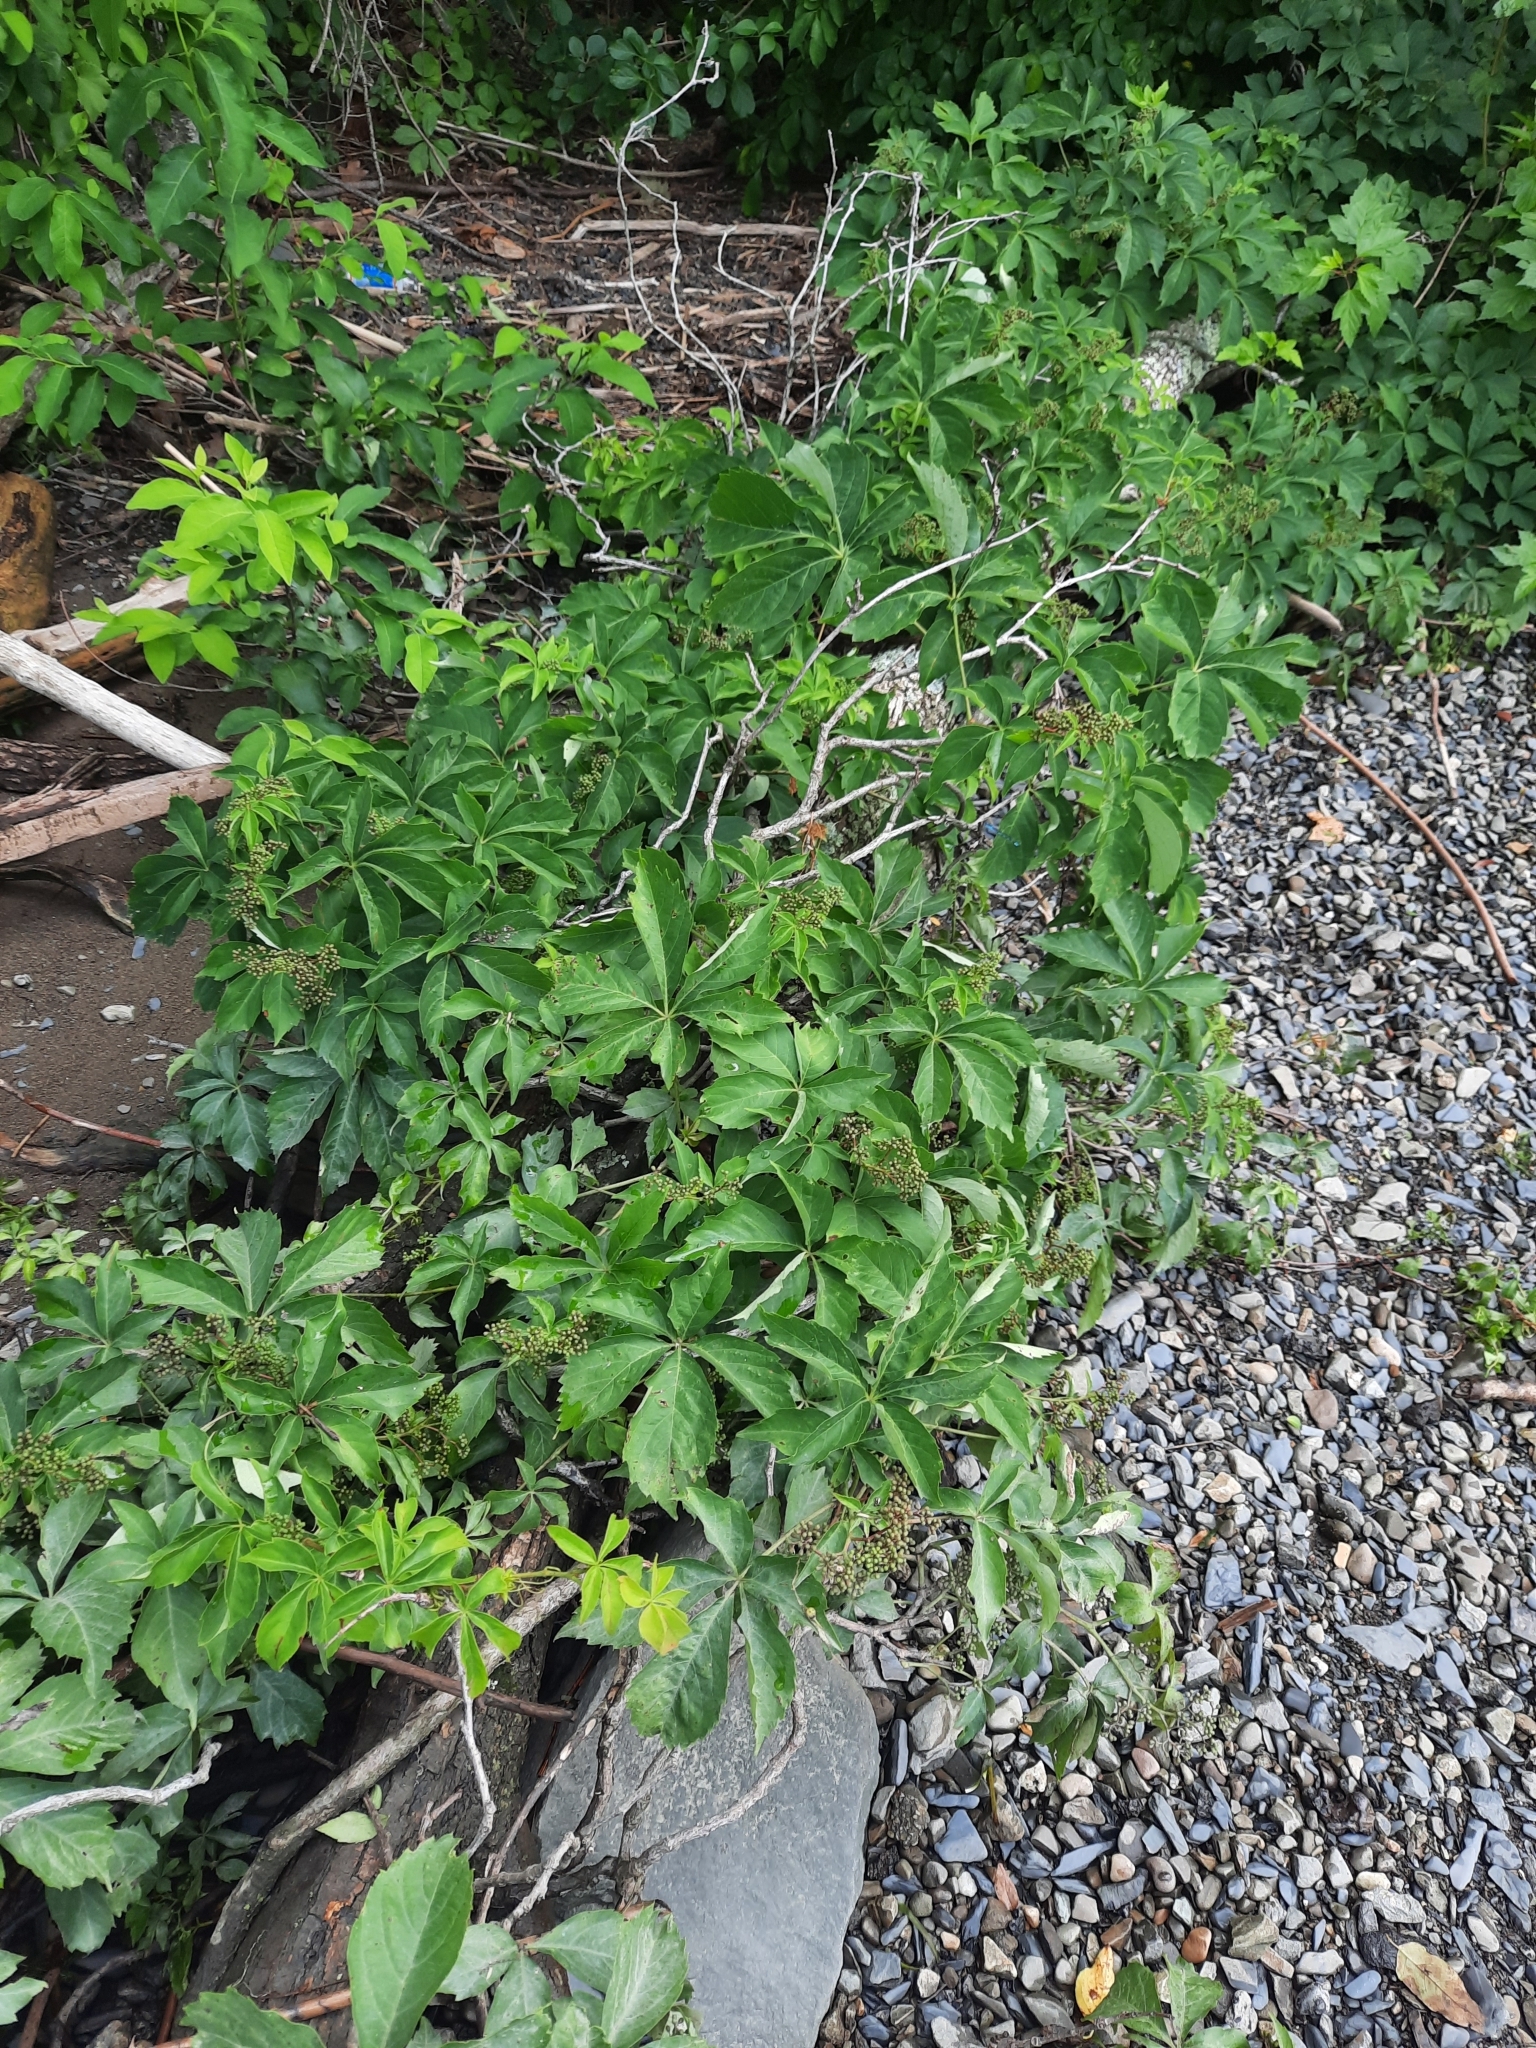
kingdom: Plantae
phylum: Tracheophyta
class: Magnoliopsida
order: Vitales
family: Vitaceae
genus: Parthenocissus
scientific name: Parthenocissus quinquefolia
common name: Virginia-creeper
